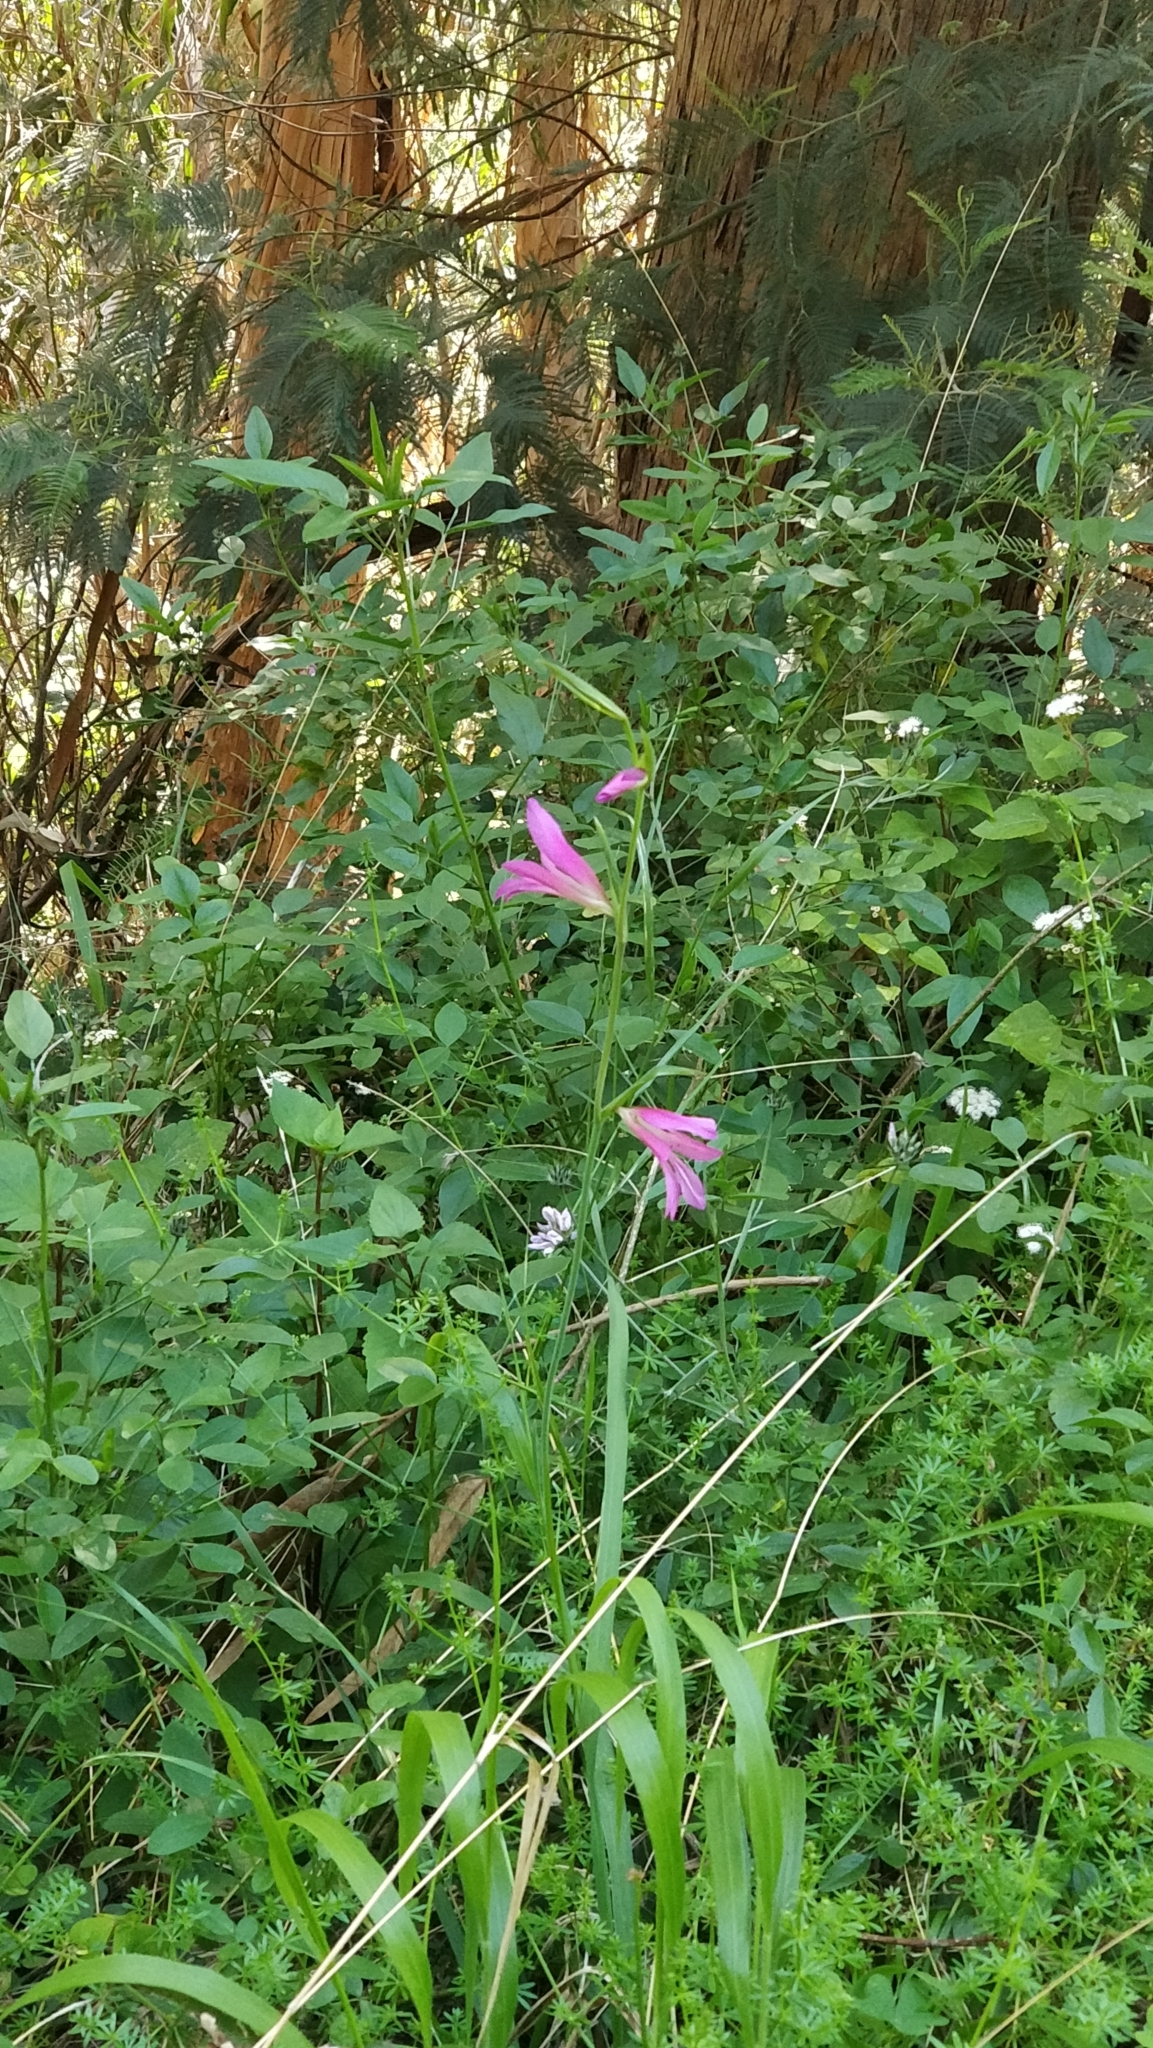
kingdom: Plantae
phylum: Tracheophyta
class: Liliopsida
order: Asparagales
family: Iridaceae
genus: Gladiolus
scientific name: Gladiolus italicus
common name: Field gladiolus
